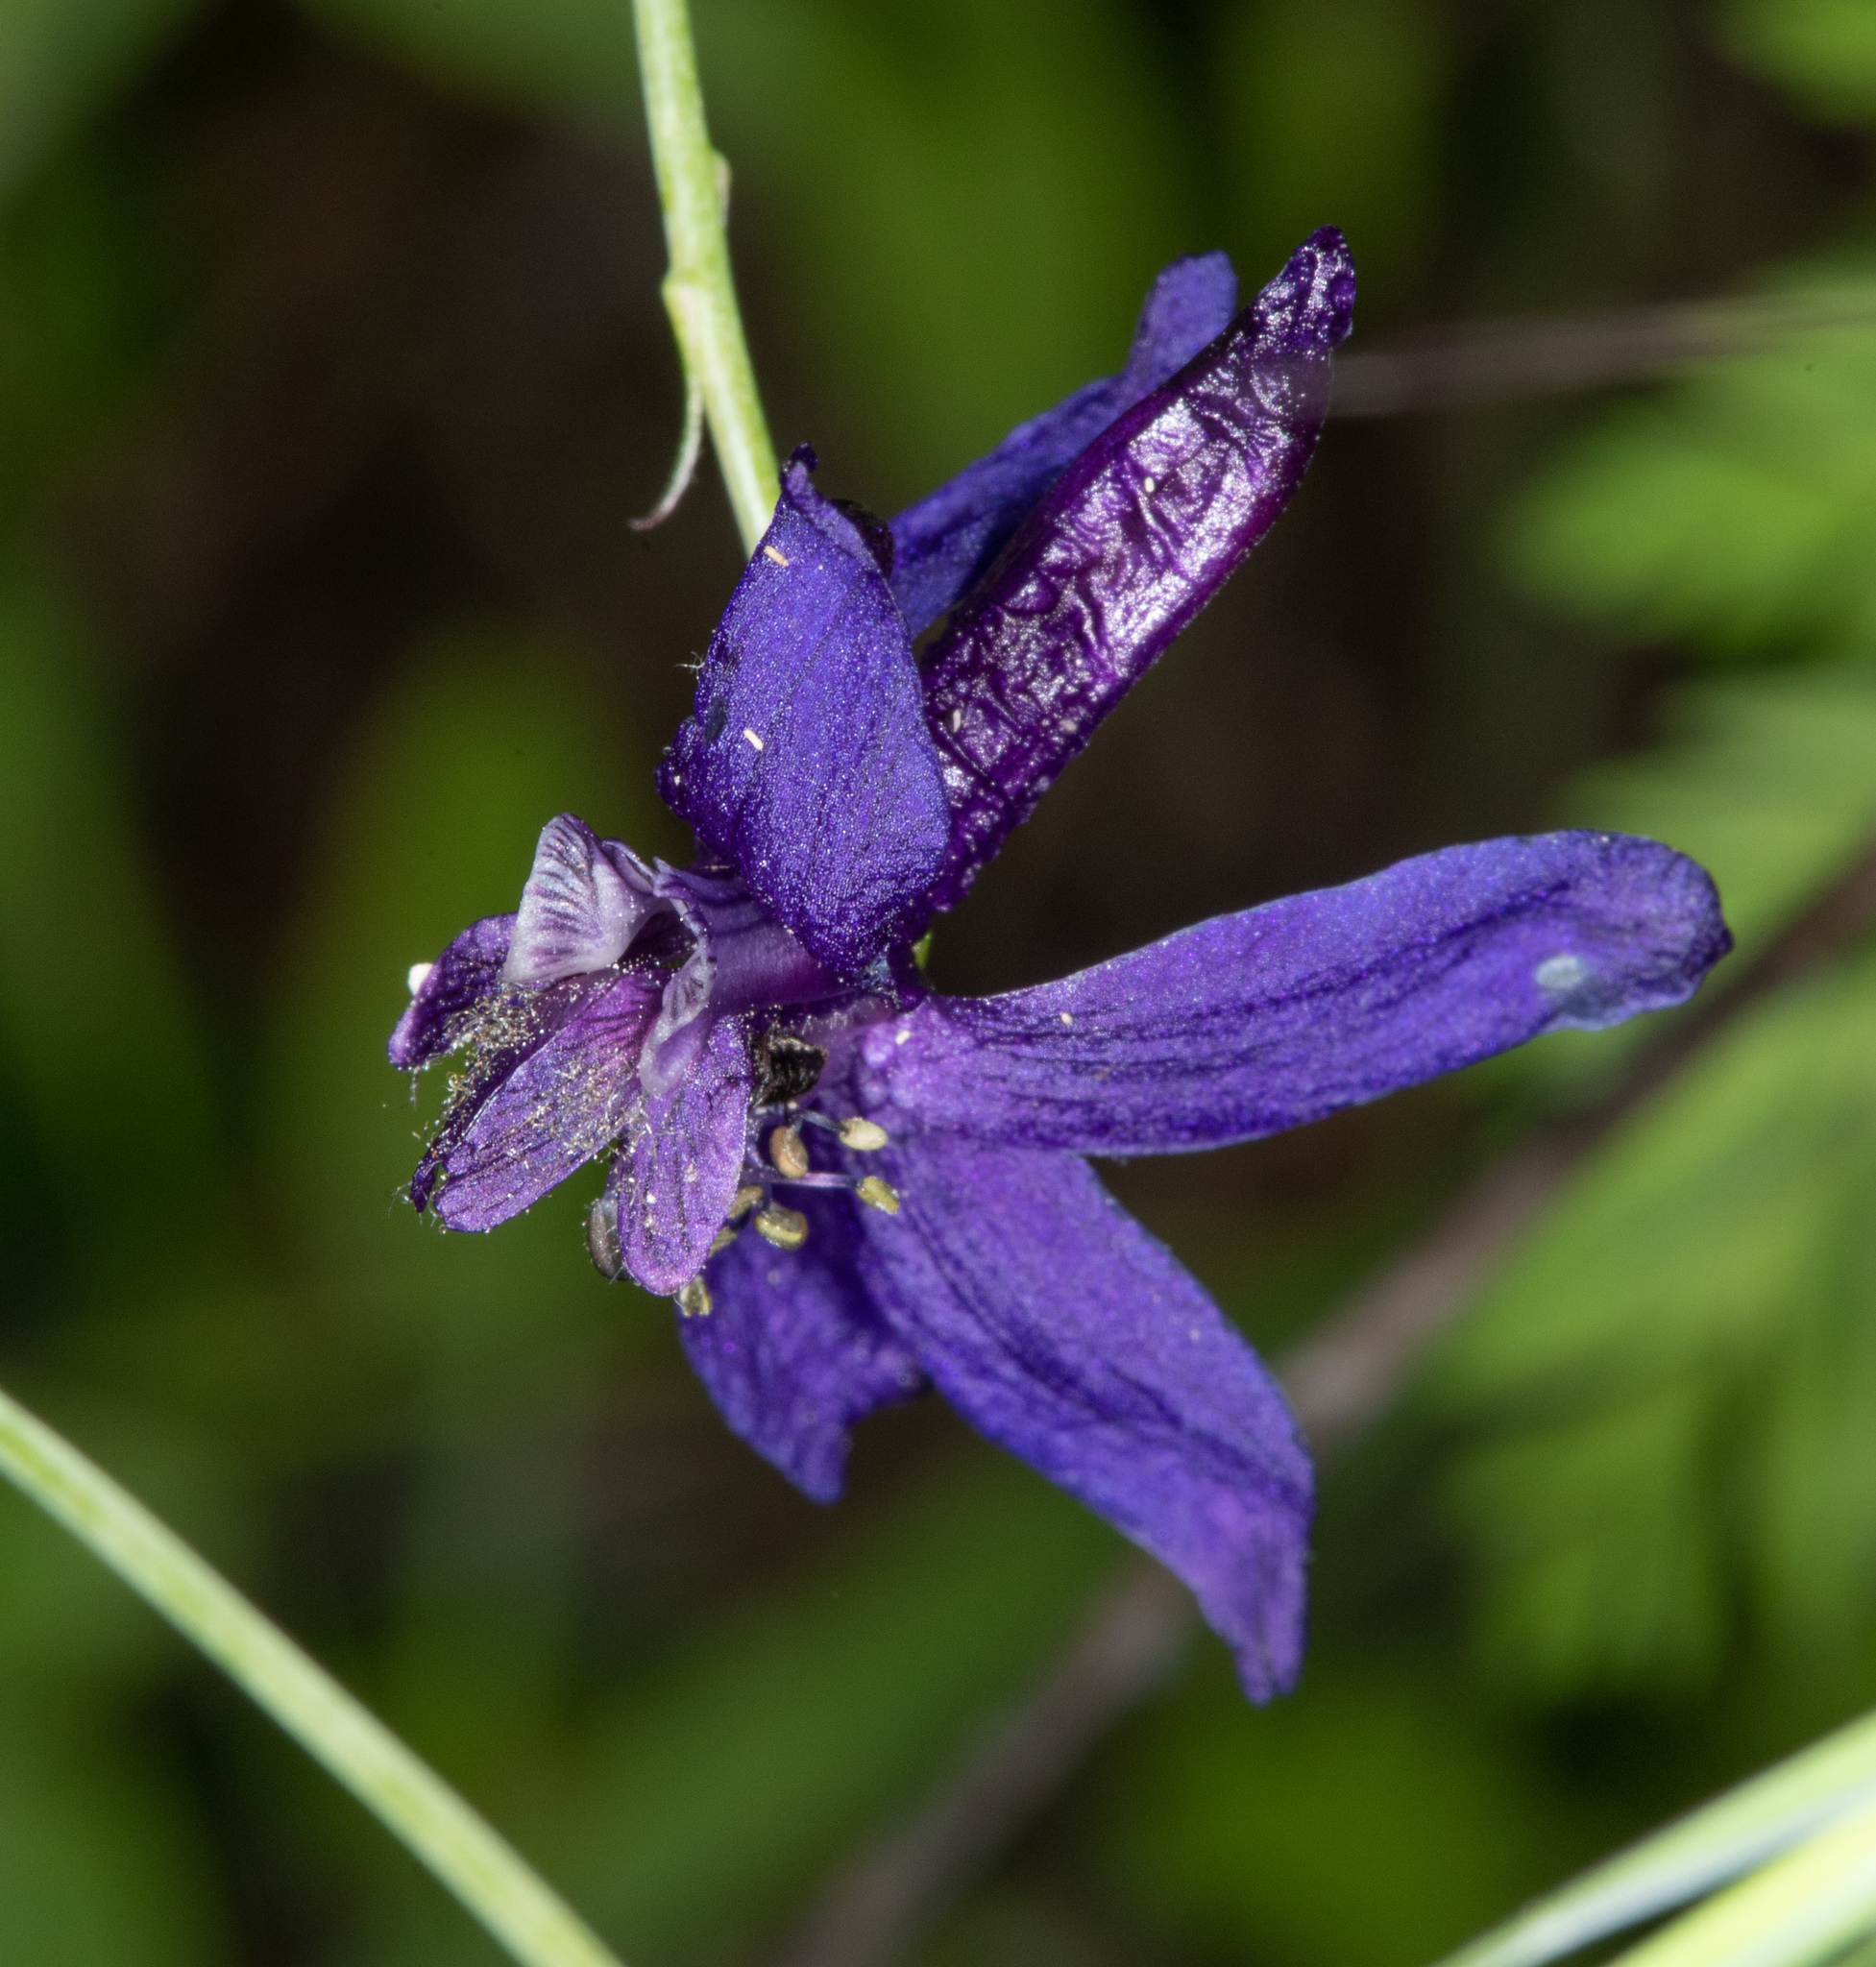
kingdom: Plantae
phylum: Tracheophyta
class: Magnoliopsida
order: Ranunculales
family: Ranunculaceae
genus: Delphinium
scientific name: Delphinium patens
